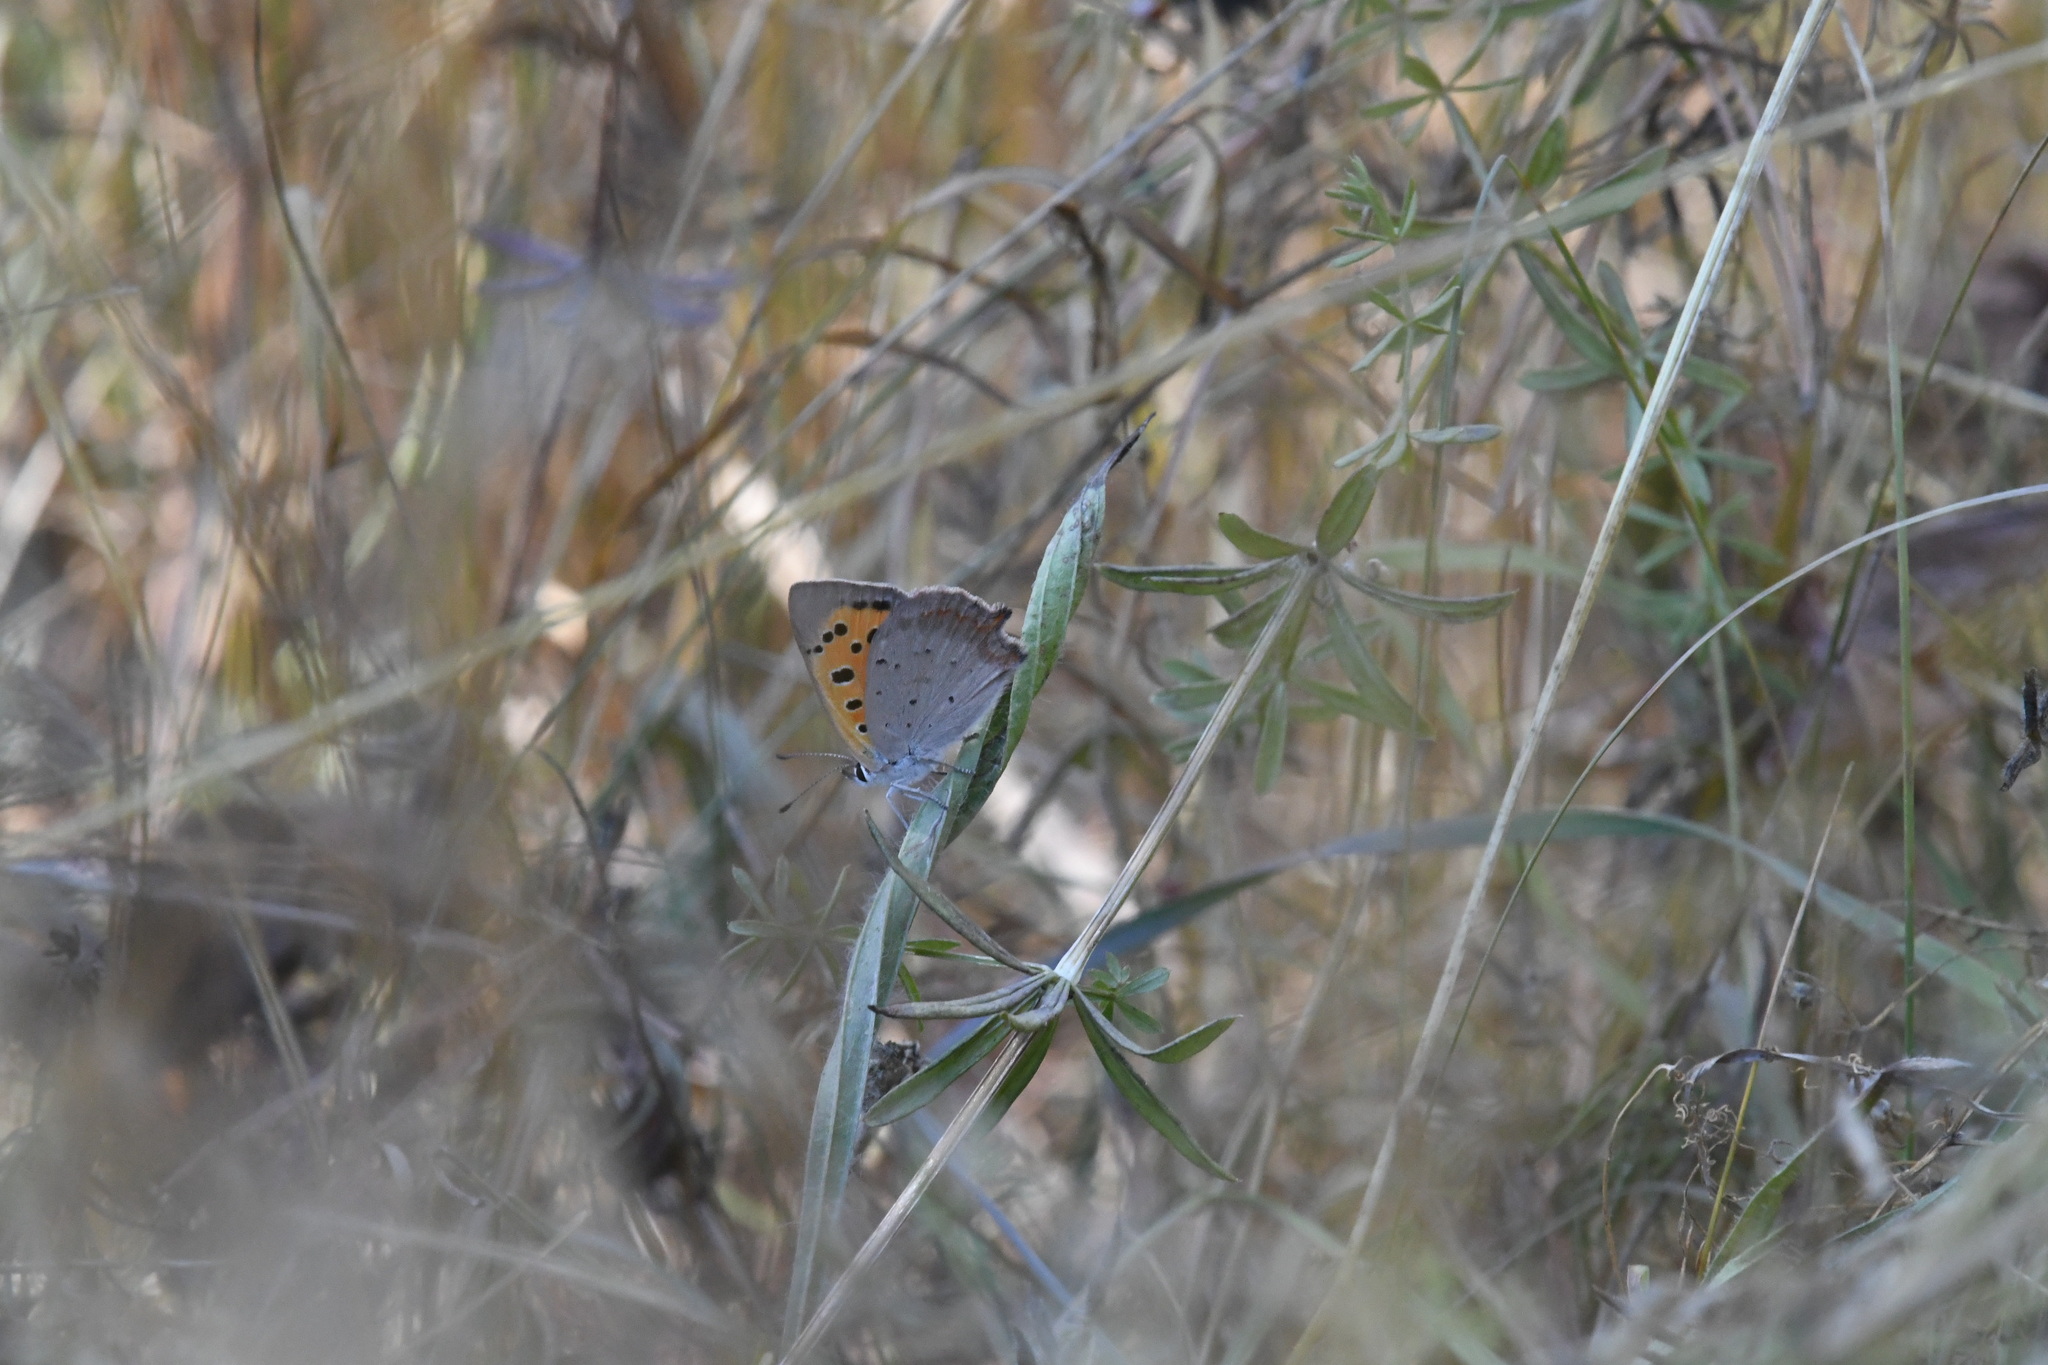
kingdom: Animalia
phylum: Arthropoda
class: Insecta
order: Lepidoptera
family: Lycaenidae
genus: Lycaena
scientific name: Lycaena phlaeas
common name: Small copper
